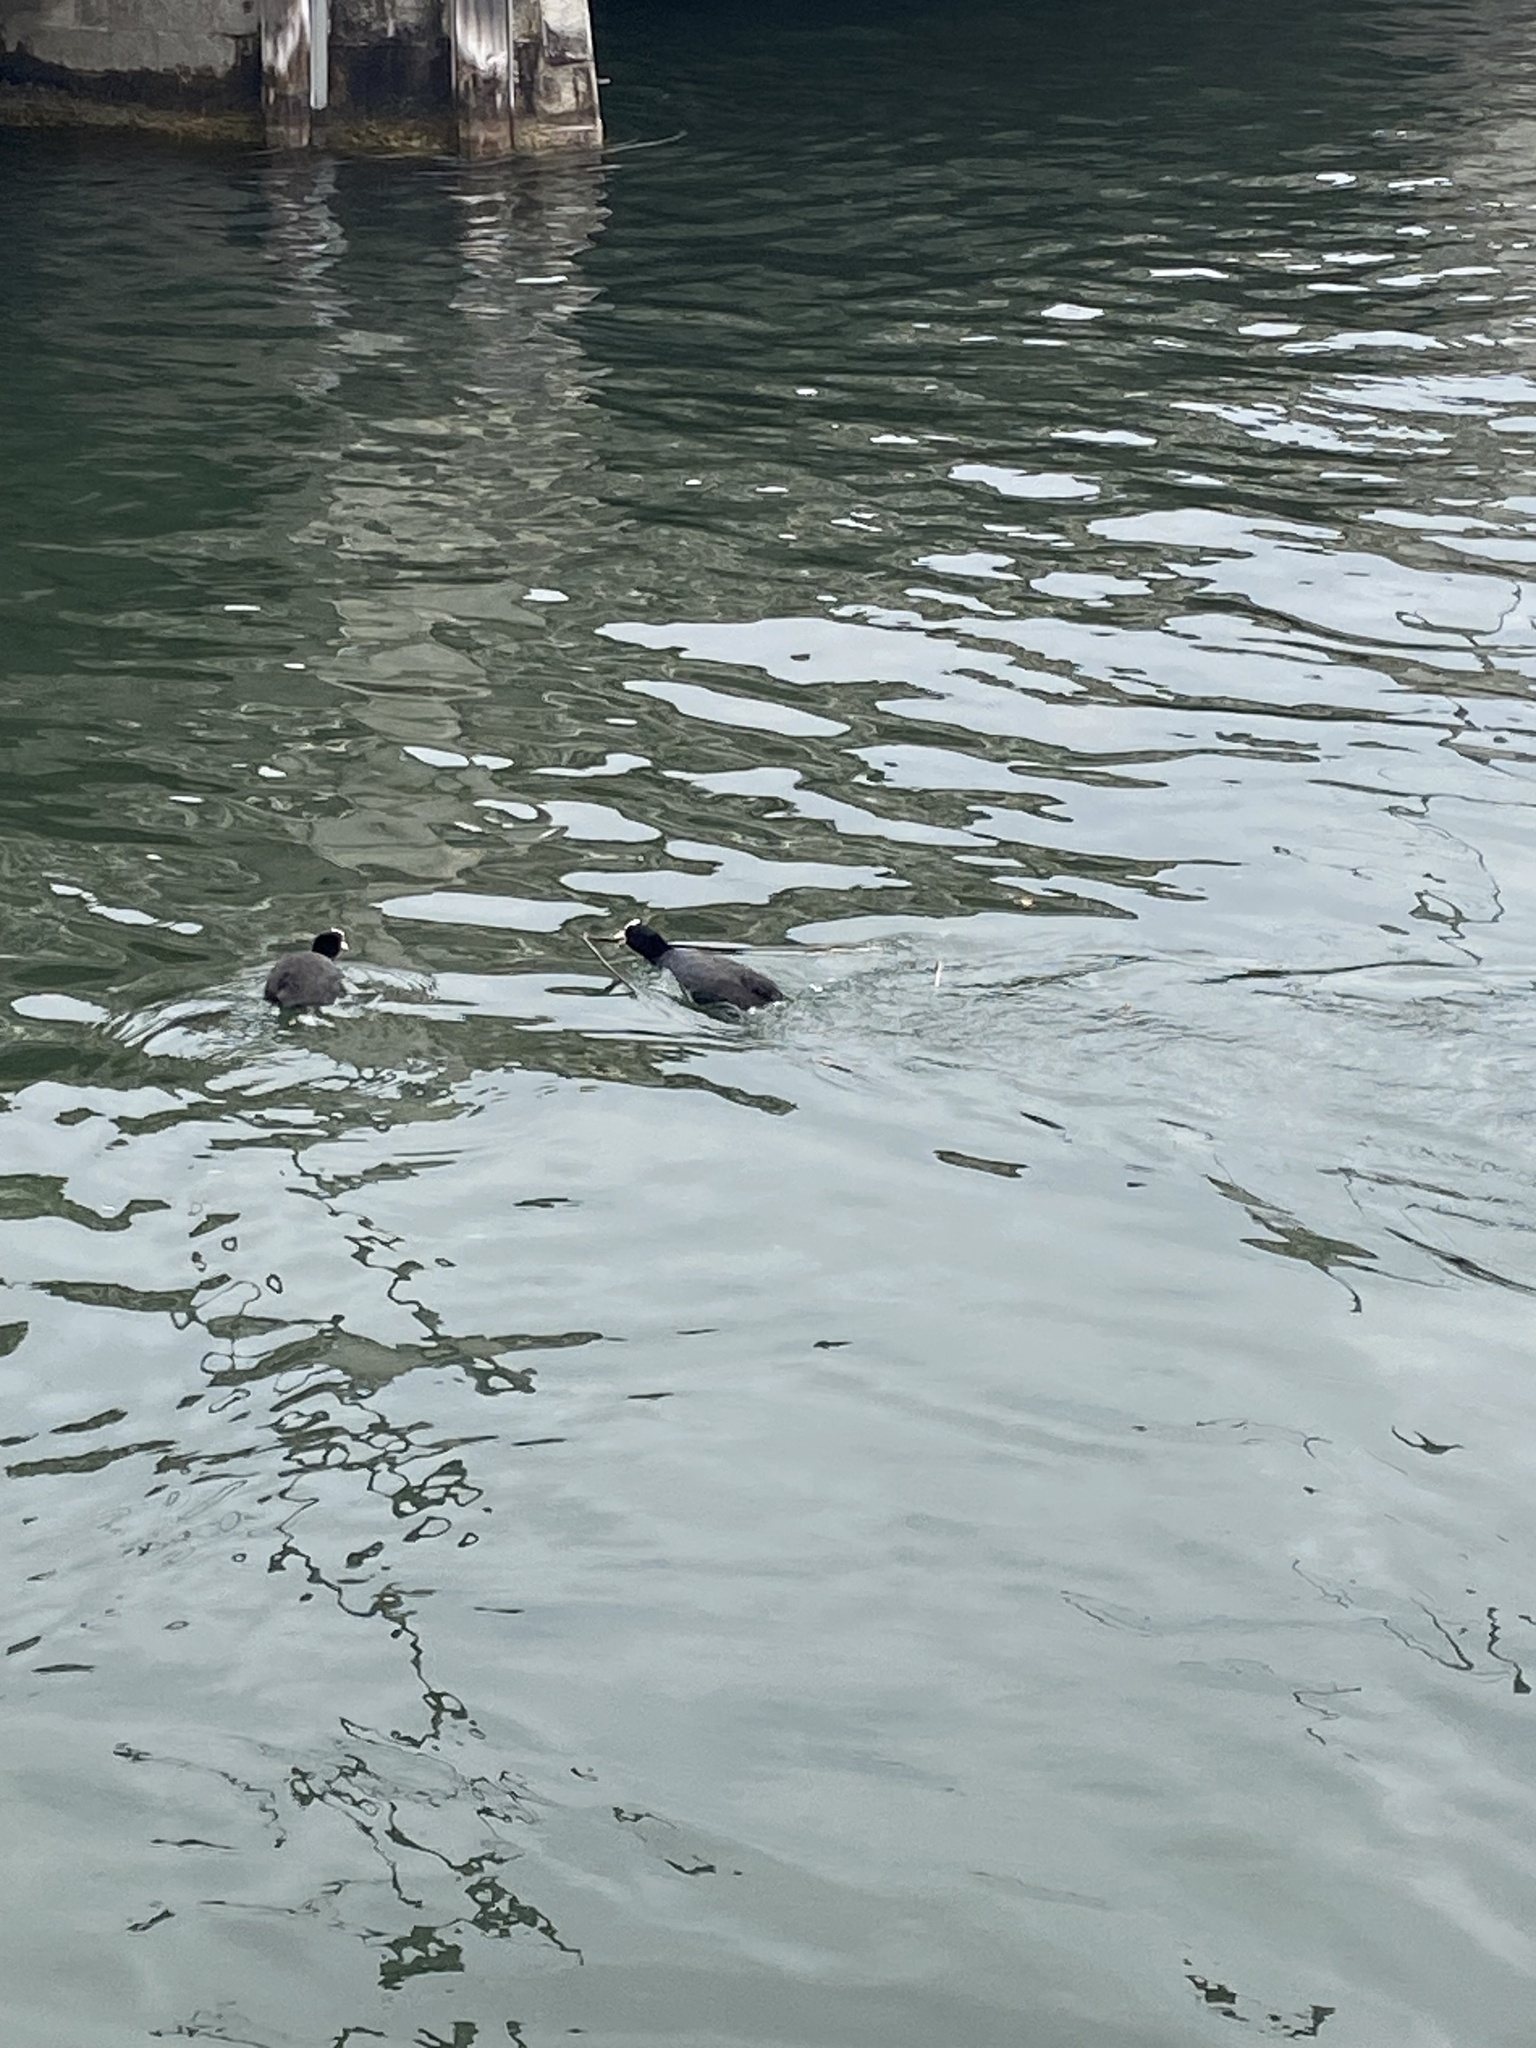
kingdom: Animalia
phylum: Chordata
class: Aves
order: Gruiformes
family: Rallidae
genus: Fulica
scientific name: Fulica atra
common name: Eurasian coot
